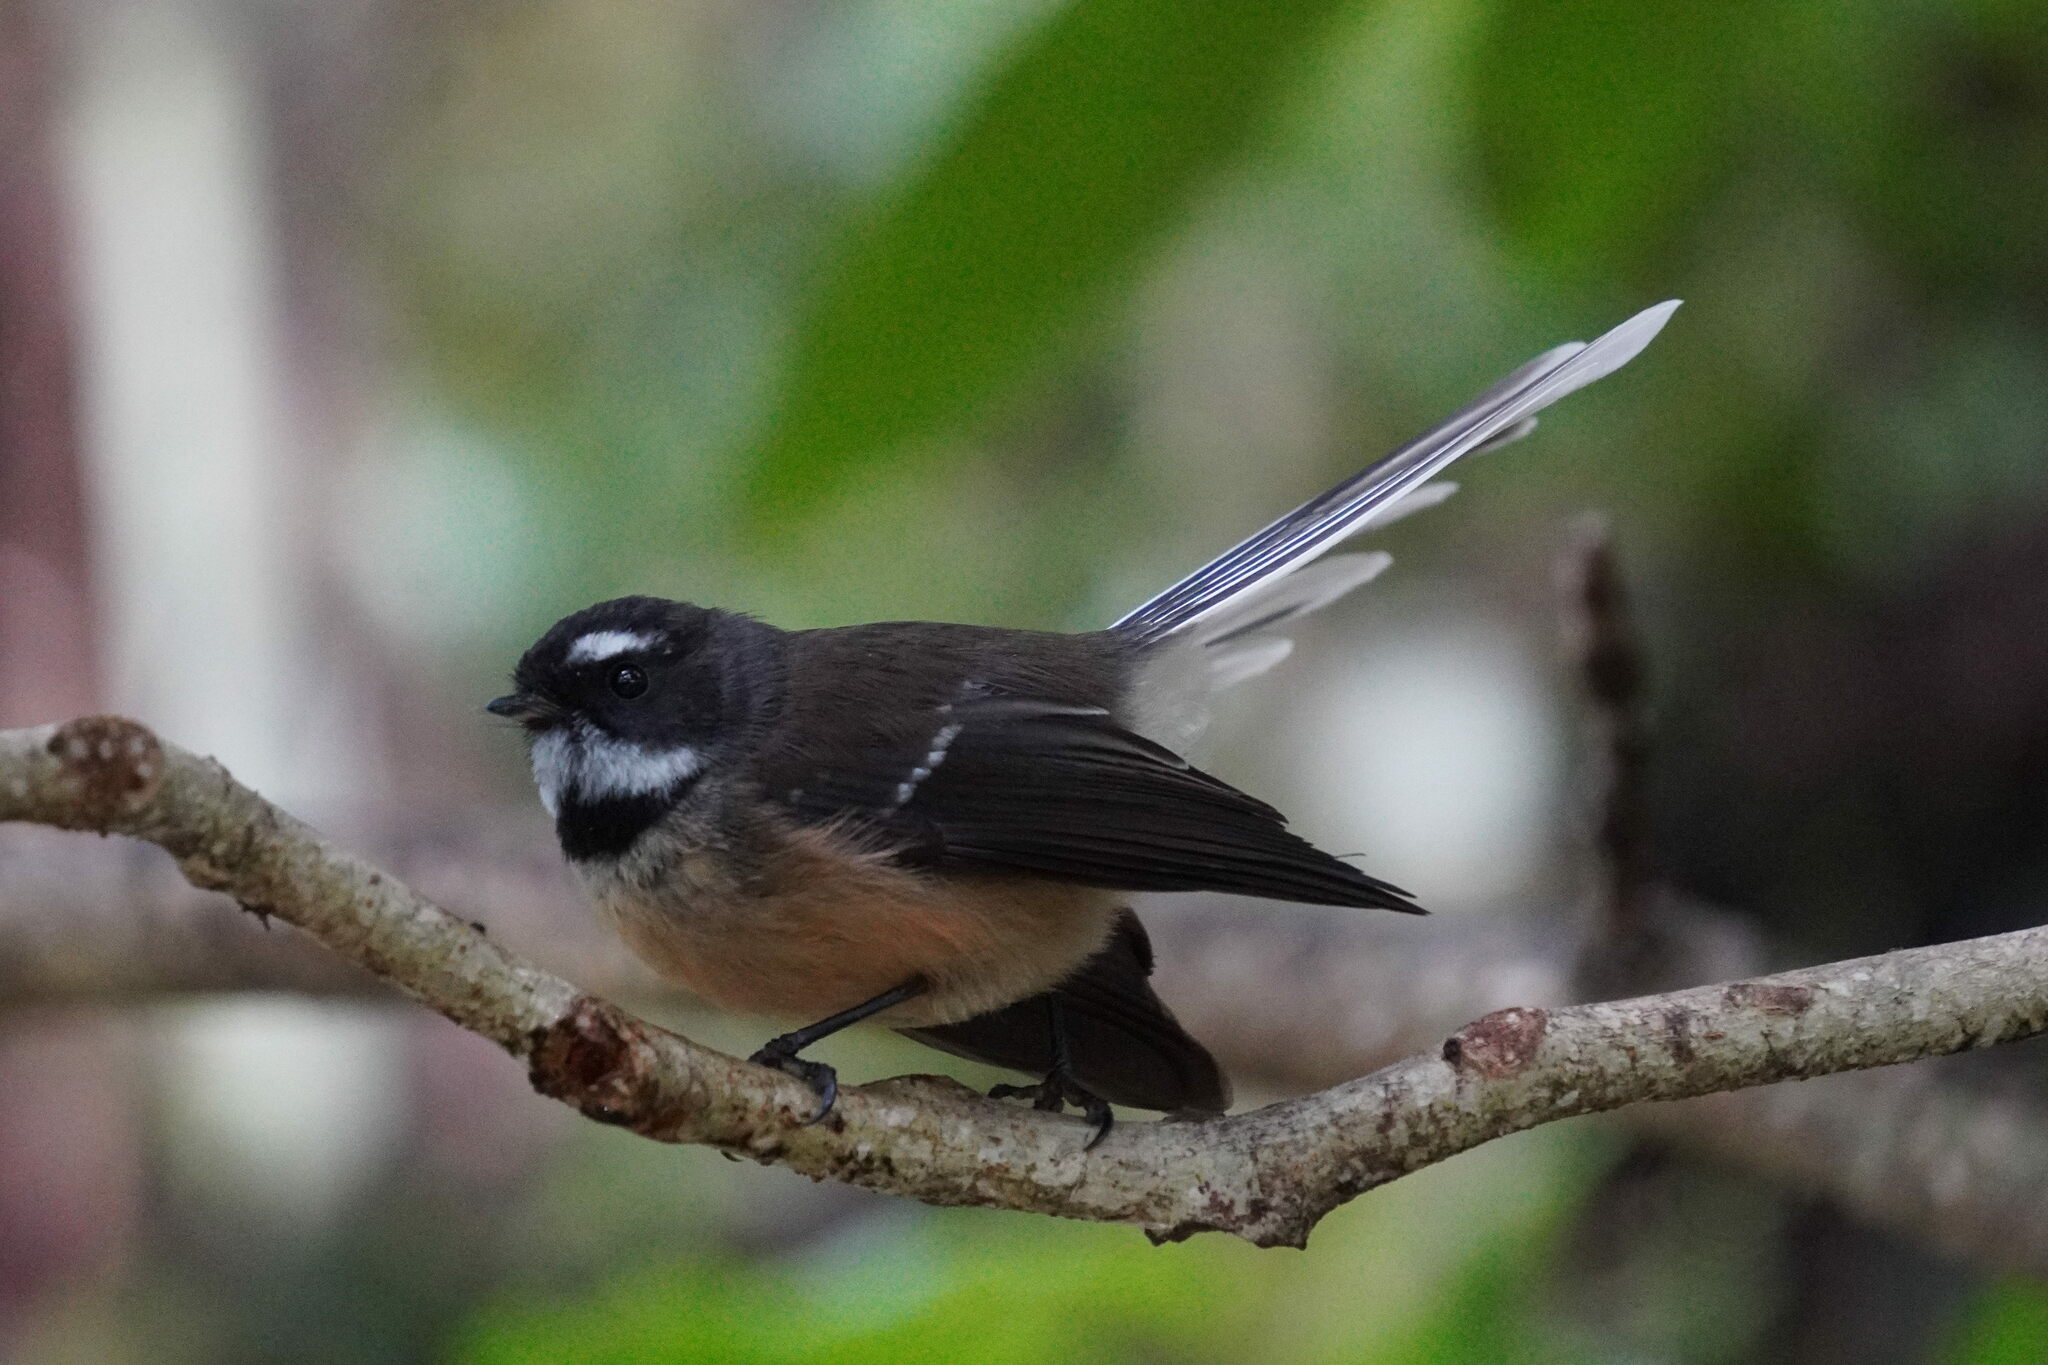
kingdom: Animalia
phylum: Chordata
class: Aves
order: Passeriformes
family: Rhipiduridae
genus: Rhipidura
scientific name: Rhipidura fuliginosa
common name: New zealand fantail
